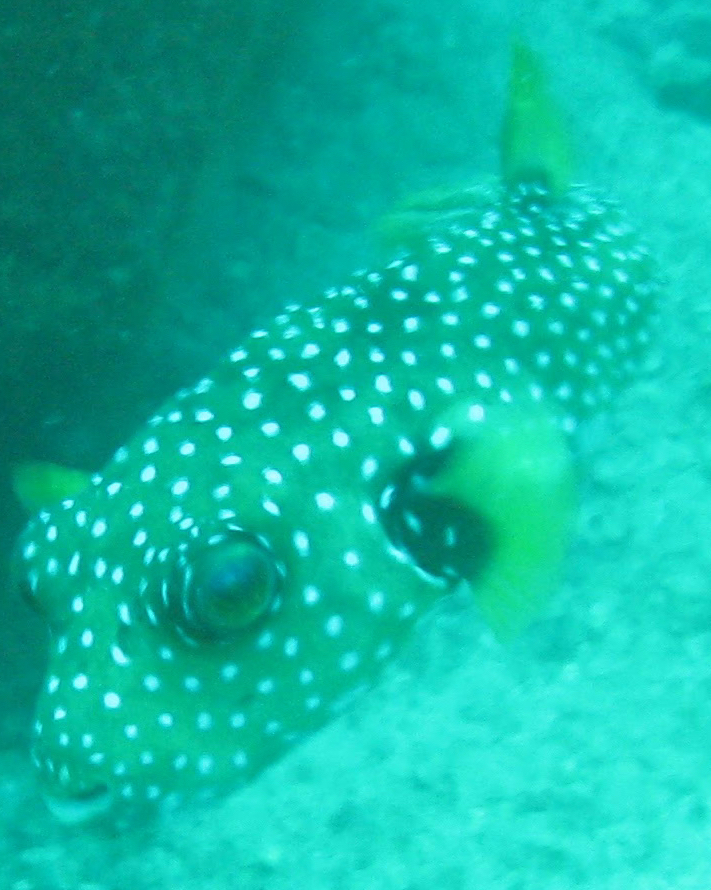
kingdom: Animalia
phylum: Chordata
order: Tetraodontiformes
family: Tetraodontidae
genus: Arothron
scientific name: Arothron hispidus
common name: Stripebelly puffer
